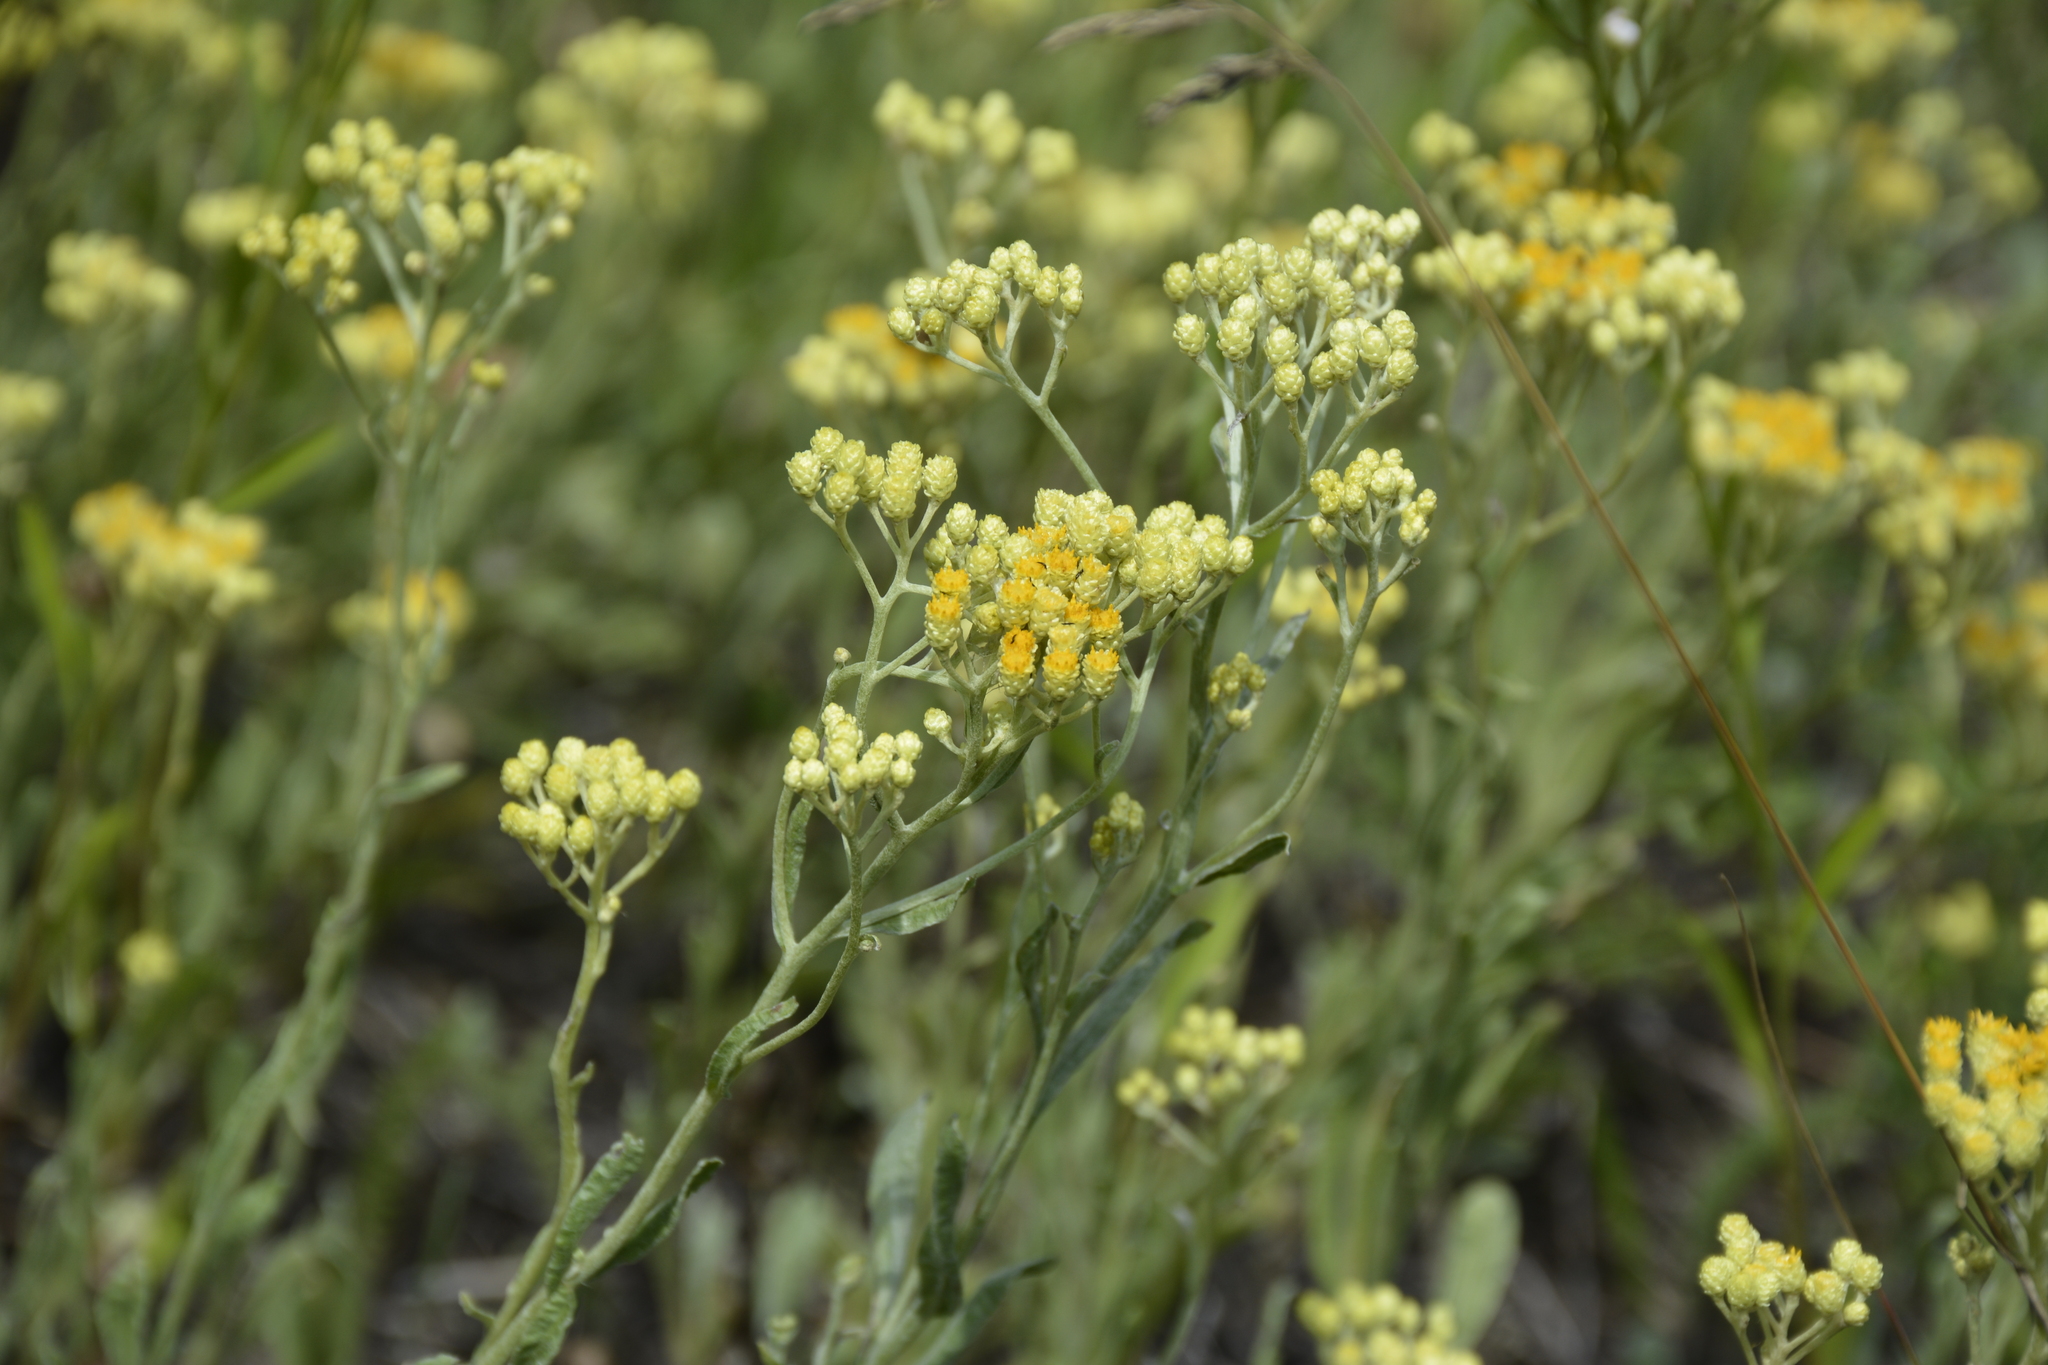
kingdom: Plantae
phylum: Tracheophyta
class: Magnoliopsida
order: Asterales
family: Asteraceae
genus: Helichrysum
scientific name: Helichrysum arenarium
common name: Strawflower
